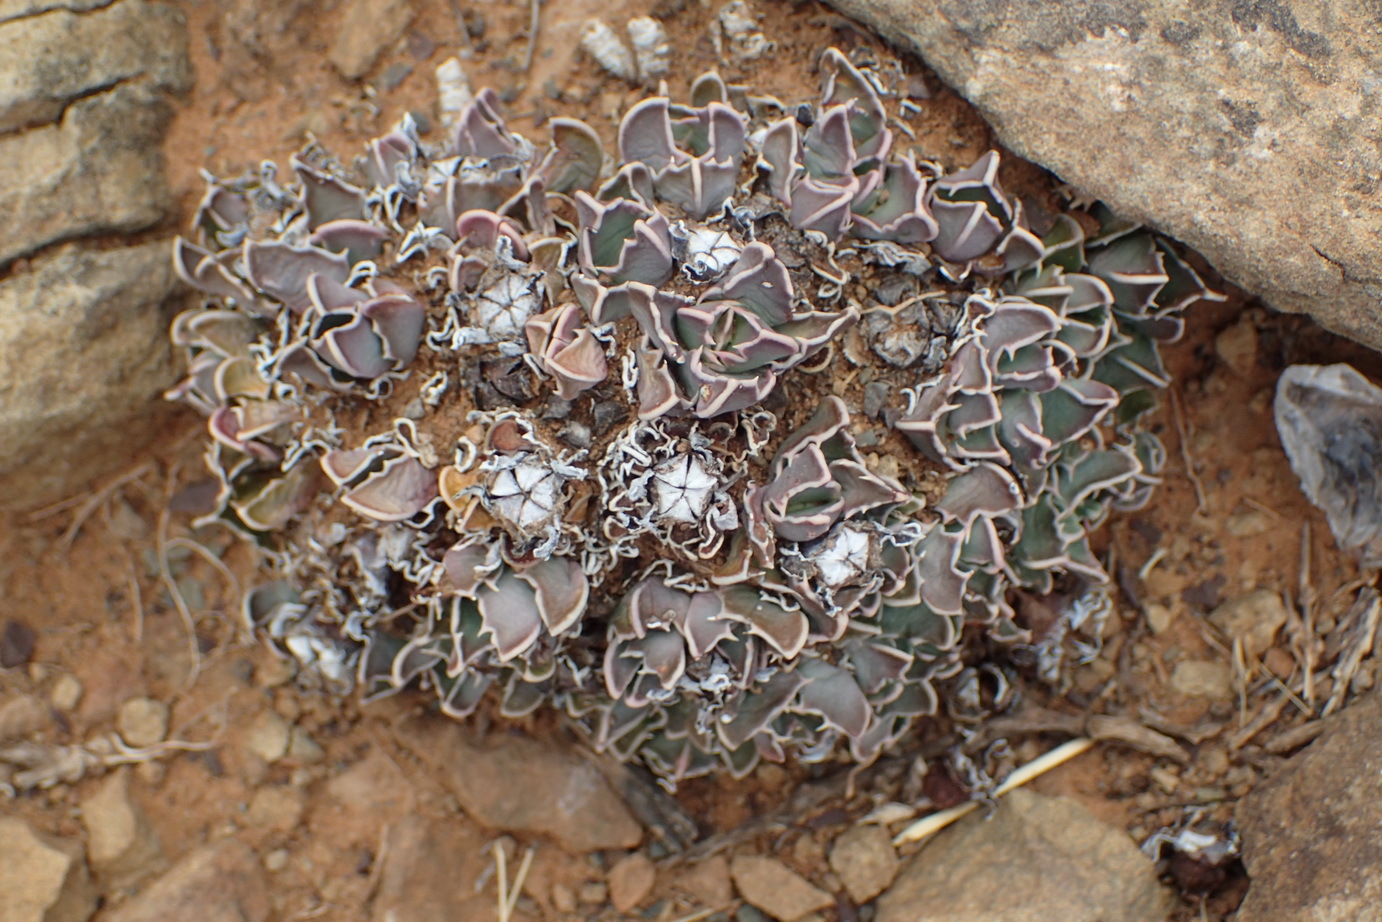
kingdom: Plantae
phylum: Tracheophyta
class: Magnoliopsida
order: Caryophyllales
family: Aizoaceae
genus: Faucaria
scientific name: Faucaria bosscheana
